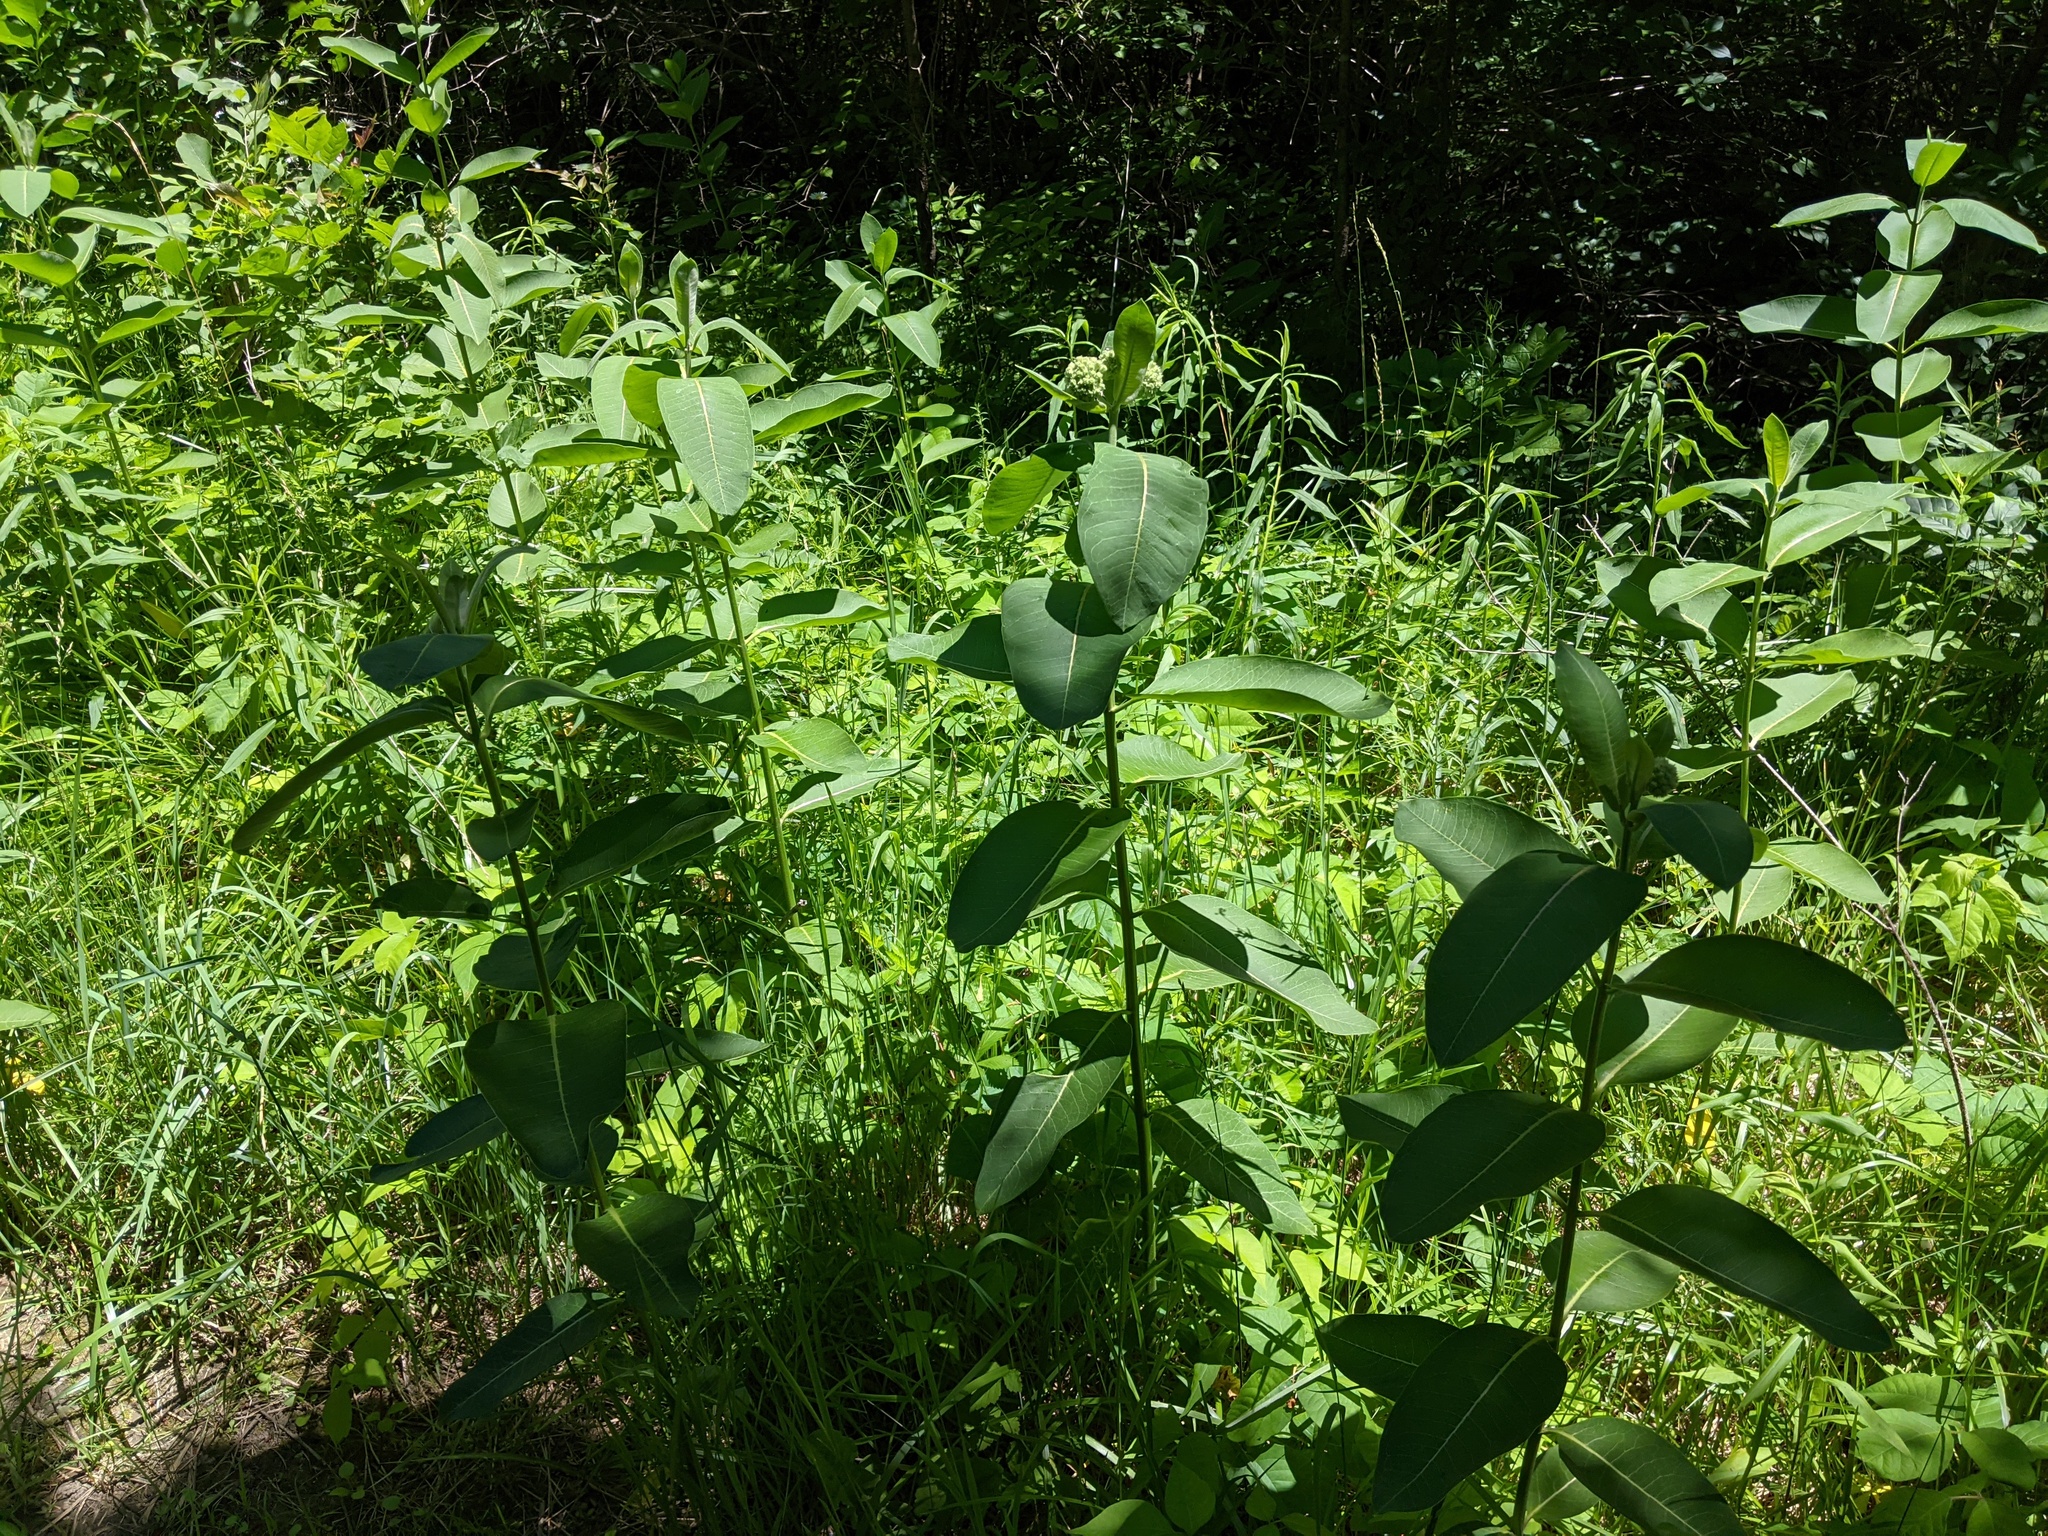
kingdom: Plantae
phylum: Tracheophyta
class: Magnoliopsida
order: Gentianales
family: Apocynaceae
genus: Asclepias
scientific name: Asclepias syriaca
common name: Common milkweed
